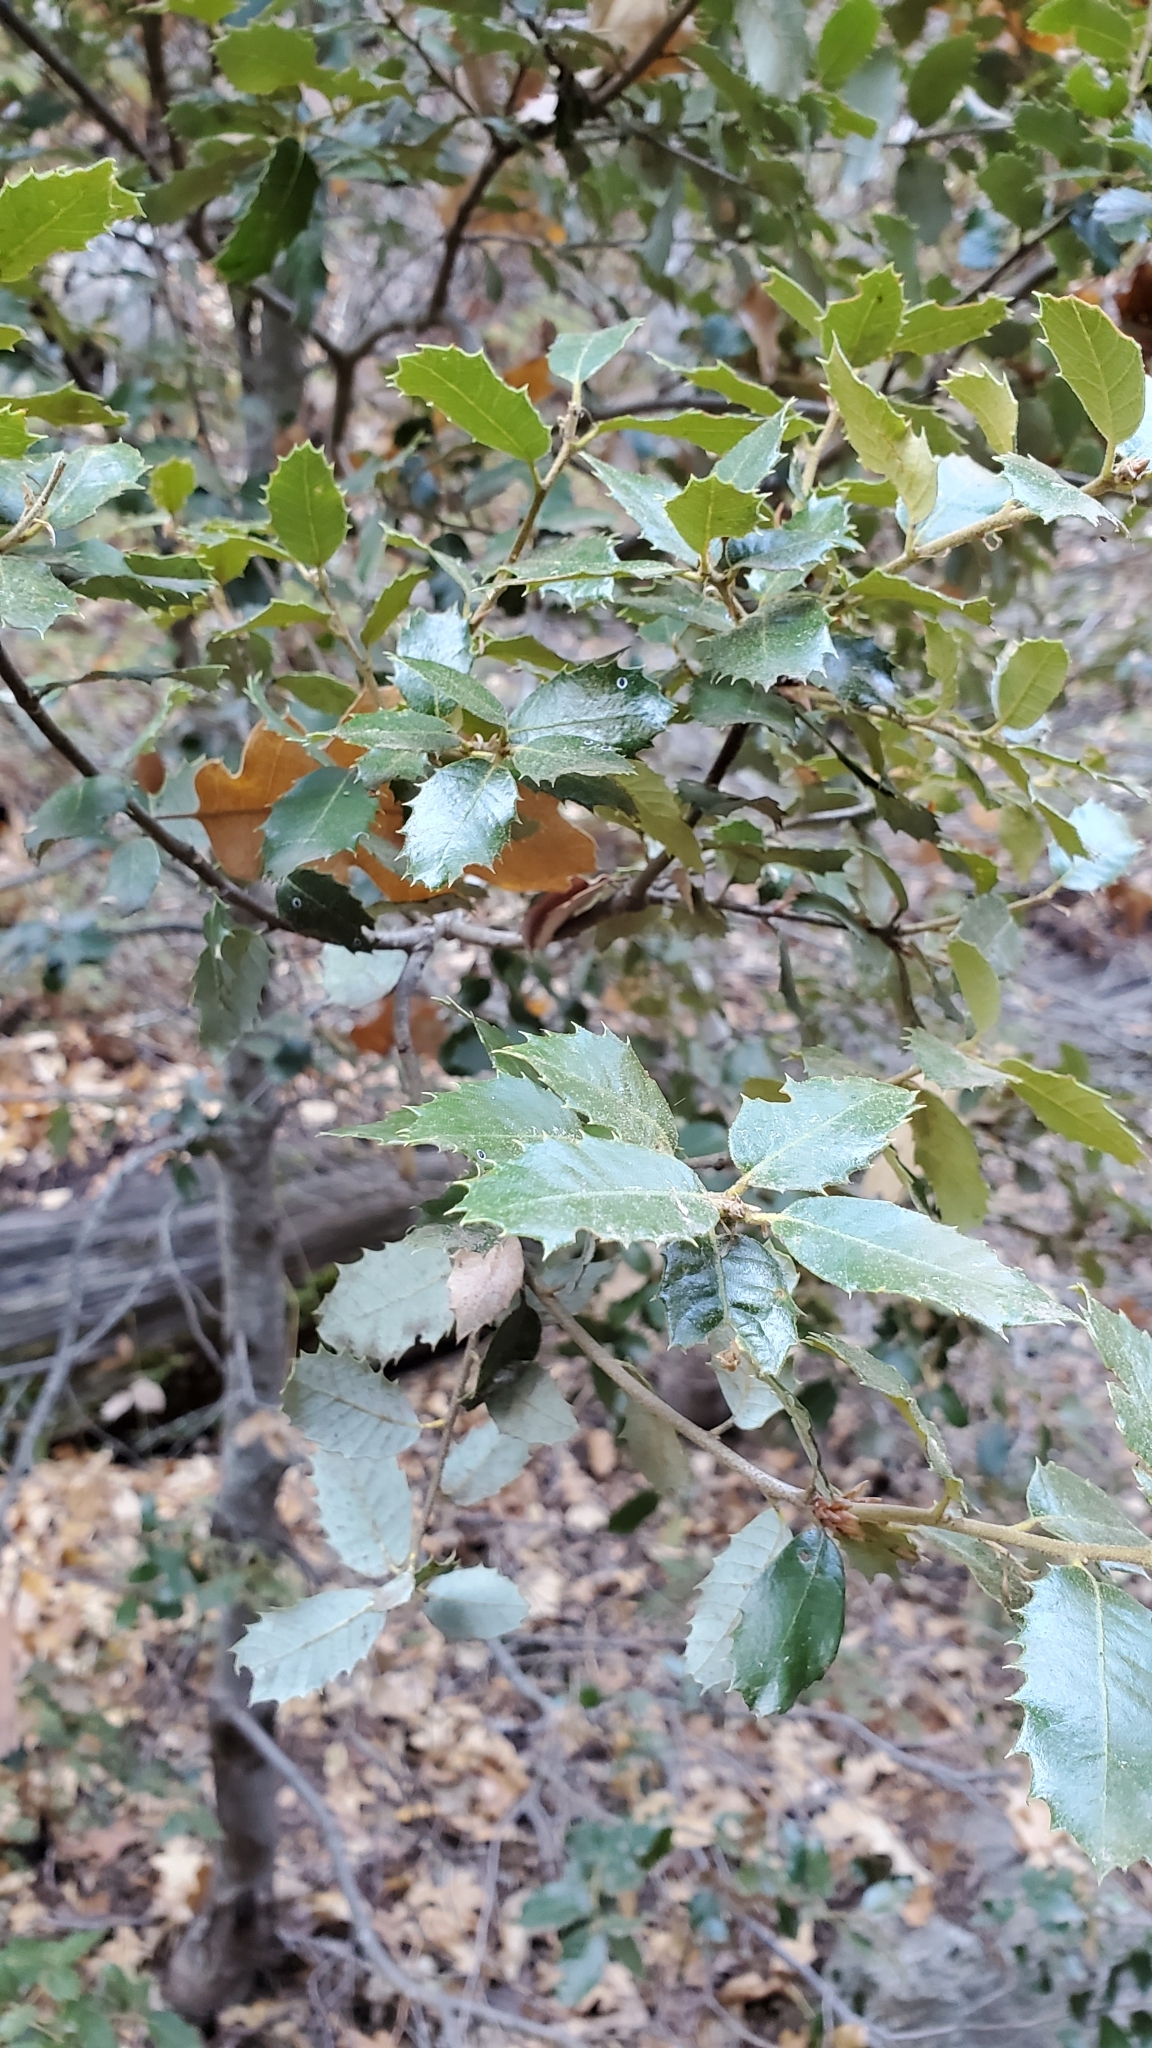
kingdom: Plantae
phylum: Tracheophyta
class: Magnoliopsida
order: Fagales
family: Fagaceae
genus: Quercus
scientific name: Quercus chrysolepis
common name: Canyon live oak
